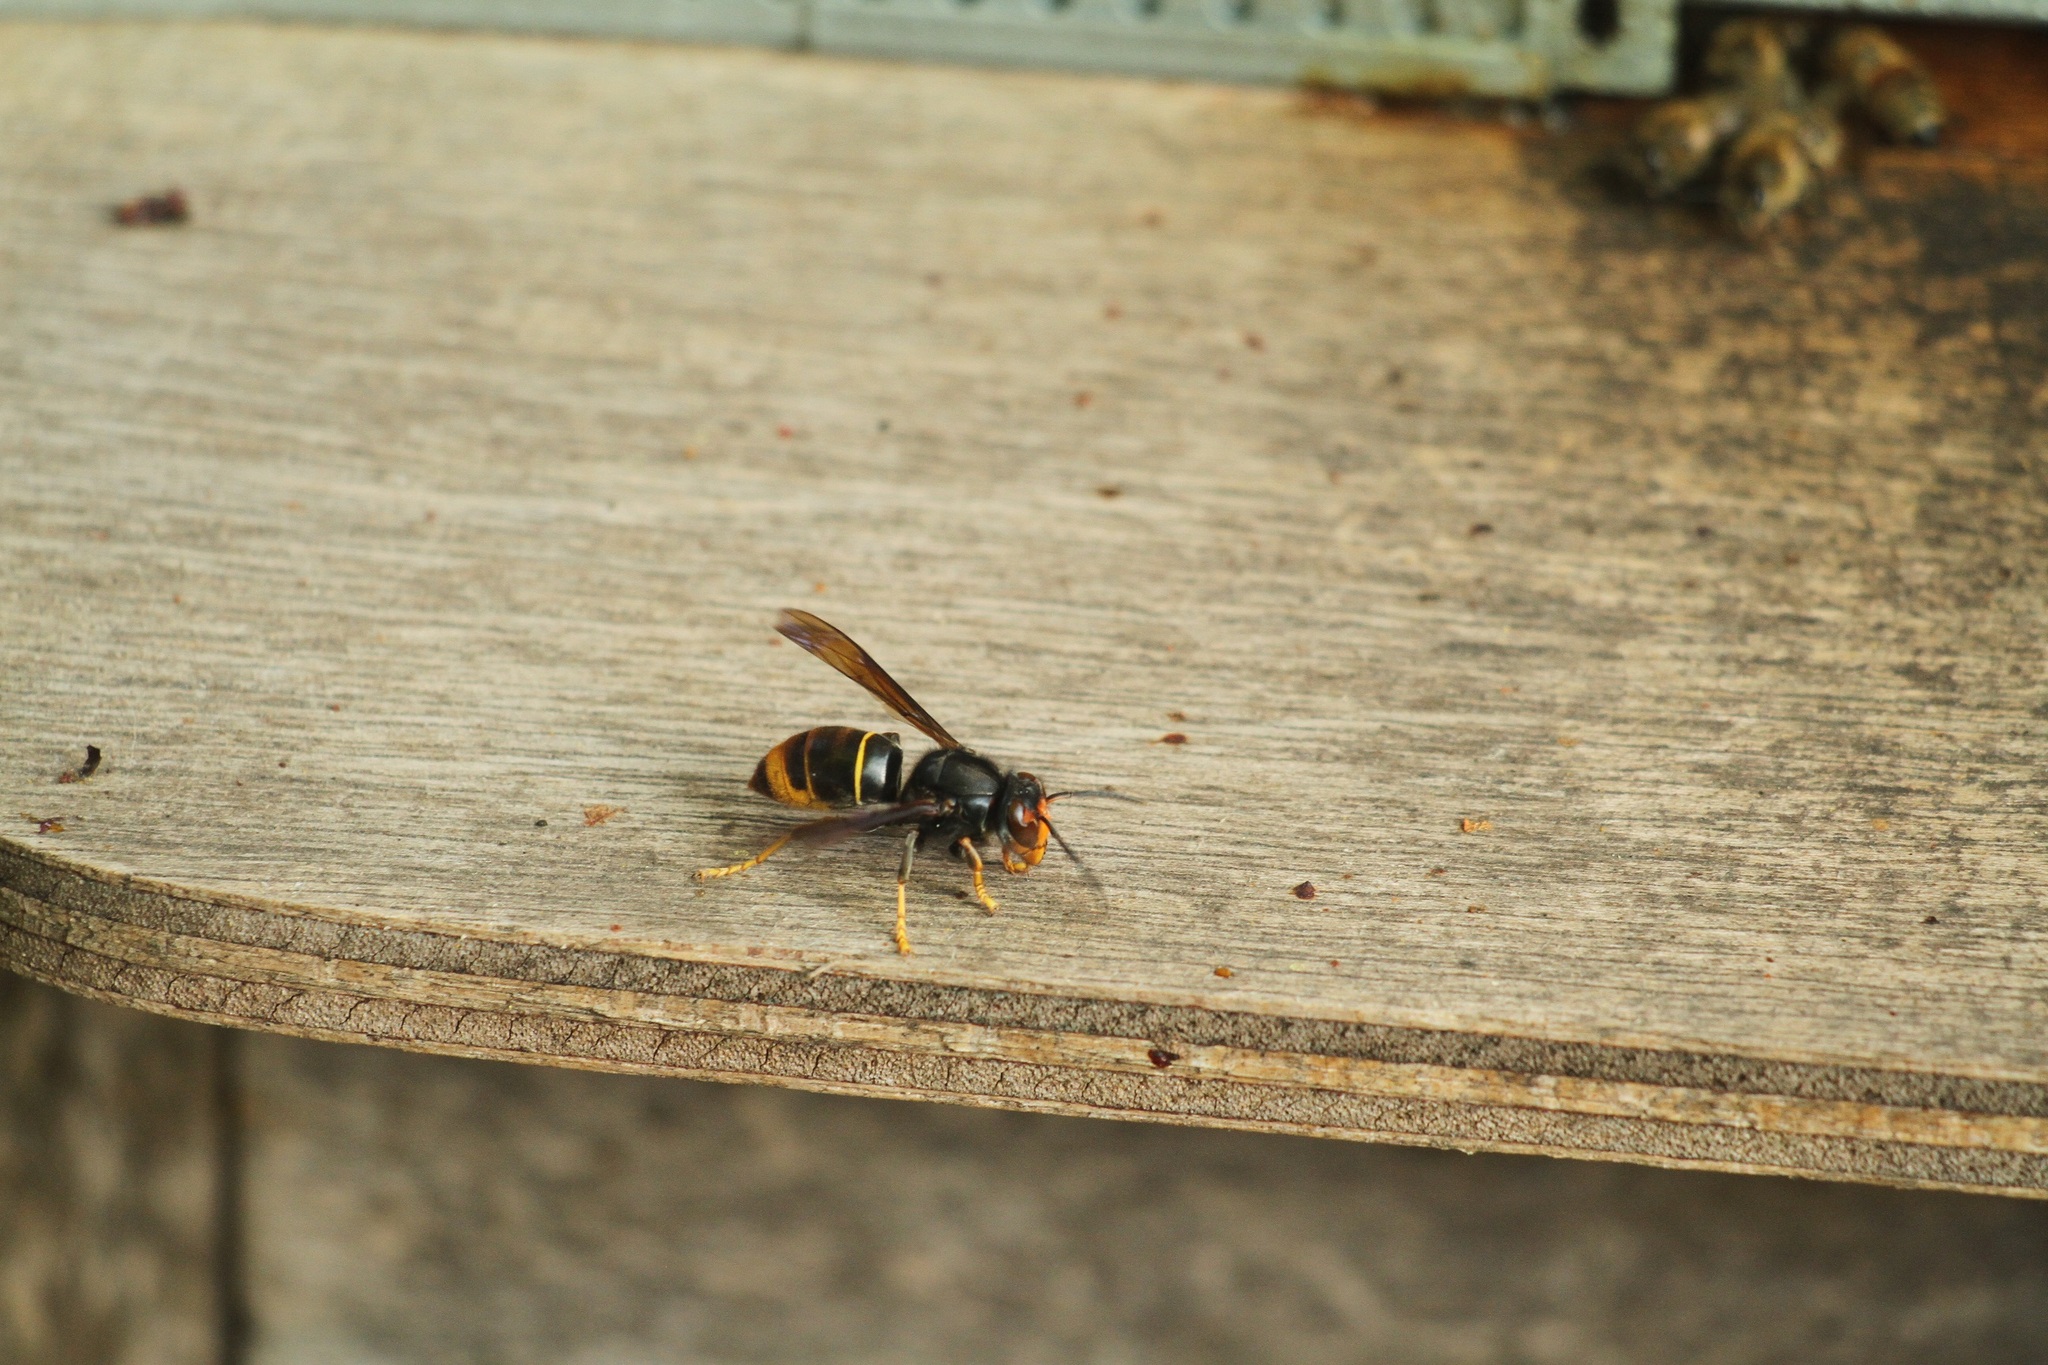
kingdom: Animalia
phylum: Arthropoda
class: Insecta
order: Hymenoptera
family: Vespidae
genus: Vespa
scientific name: Vespa velutina
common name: Asian hornet
